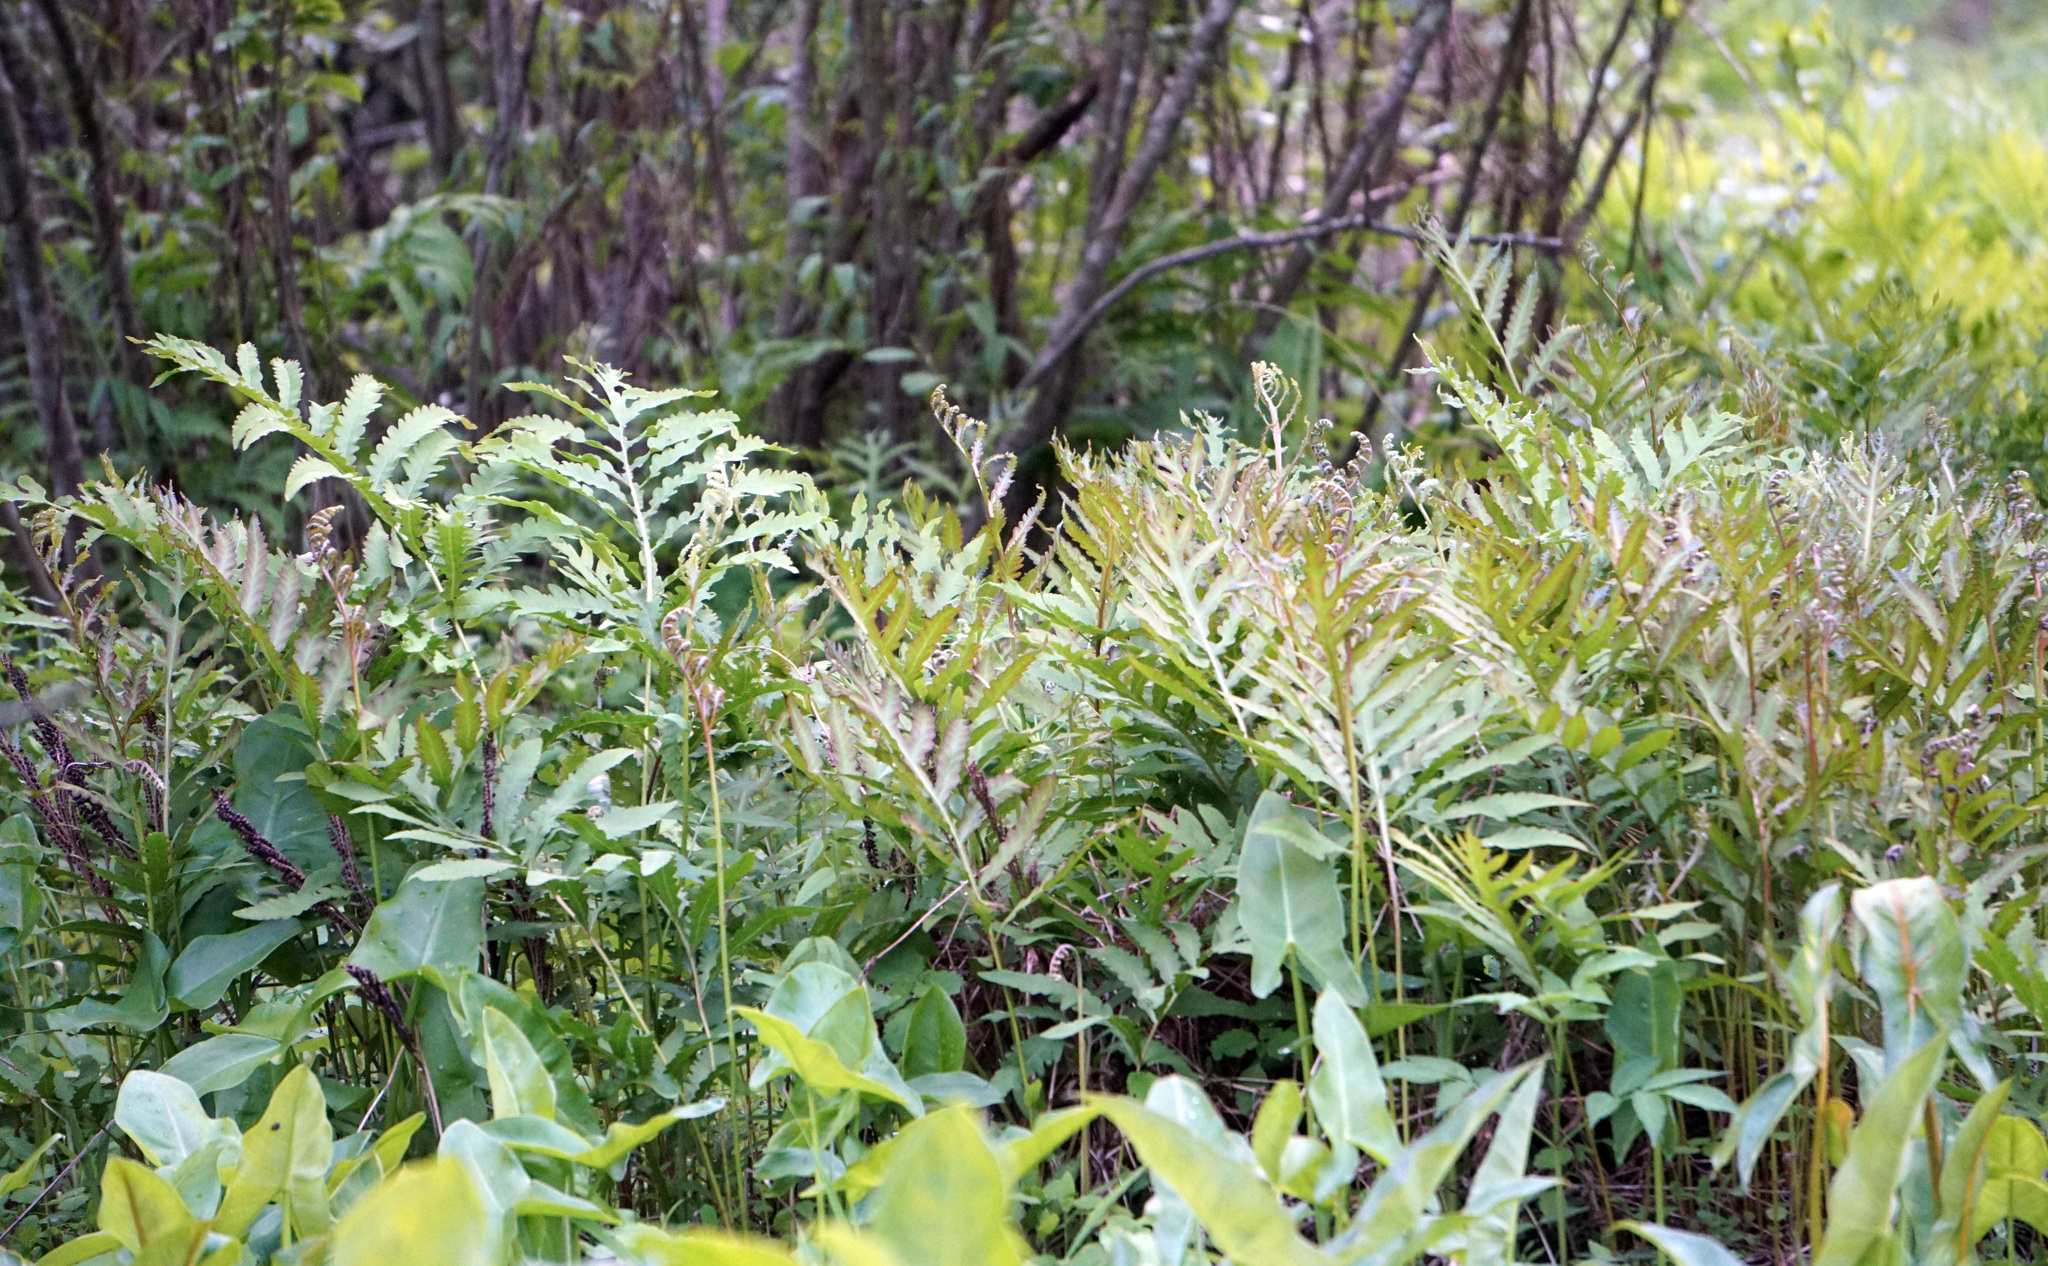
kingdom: Plantae
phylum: Tracheophyta
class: Polypodiopsida
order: Polypodiales
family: Onocleaceae
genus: Onoclea
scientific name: Onoclea sensibilis
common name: Sensitive fern
